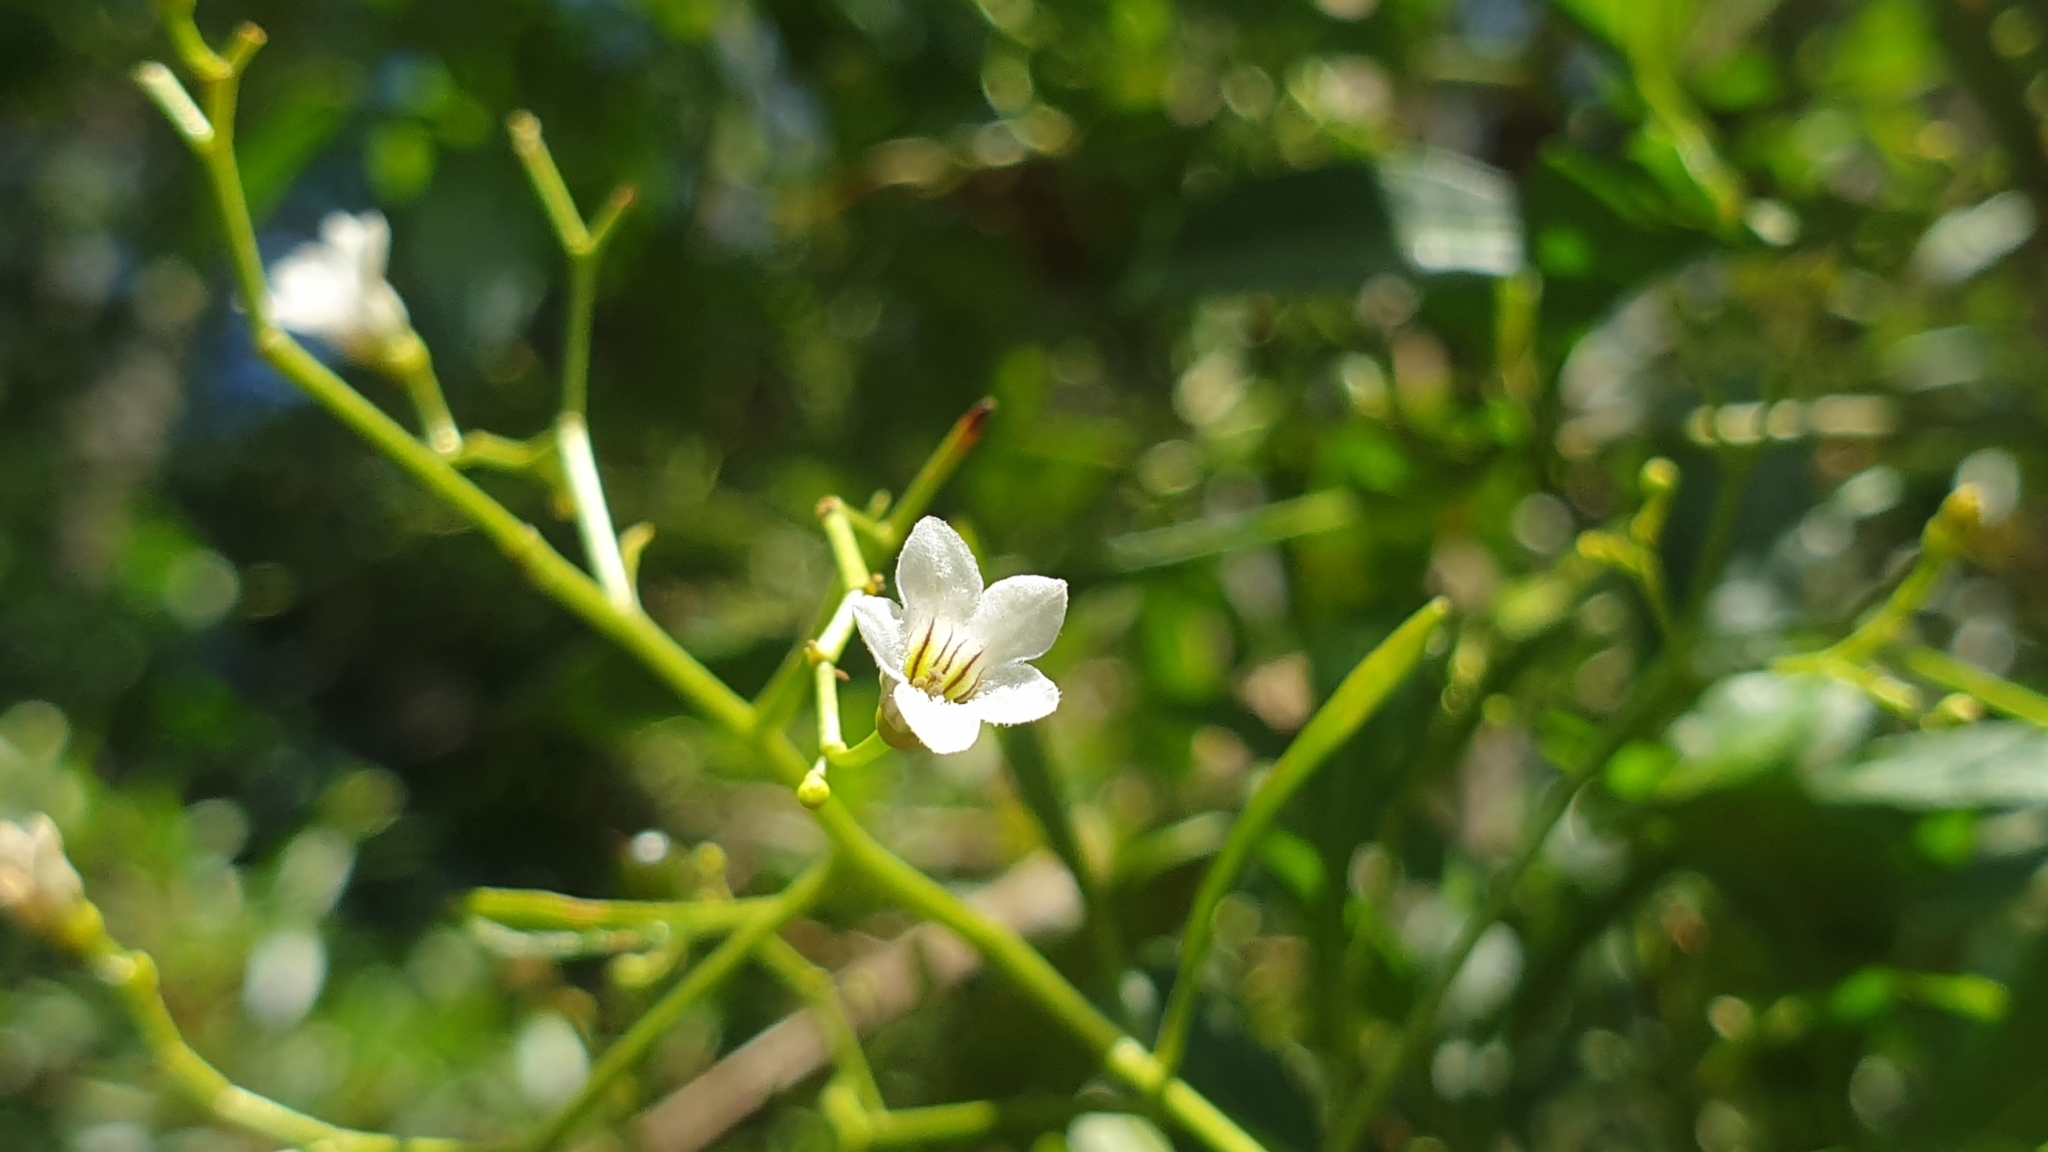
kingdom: Plantae
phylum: Tracheophyta
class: Magnoliopsida
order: Solanales
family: Solanaceae
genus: Duboisia
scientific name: Duboisia myoporoides
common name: Corkwoodtree
